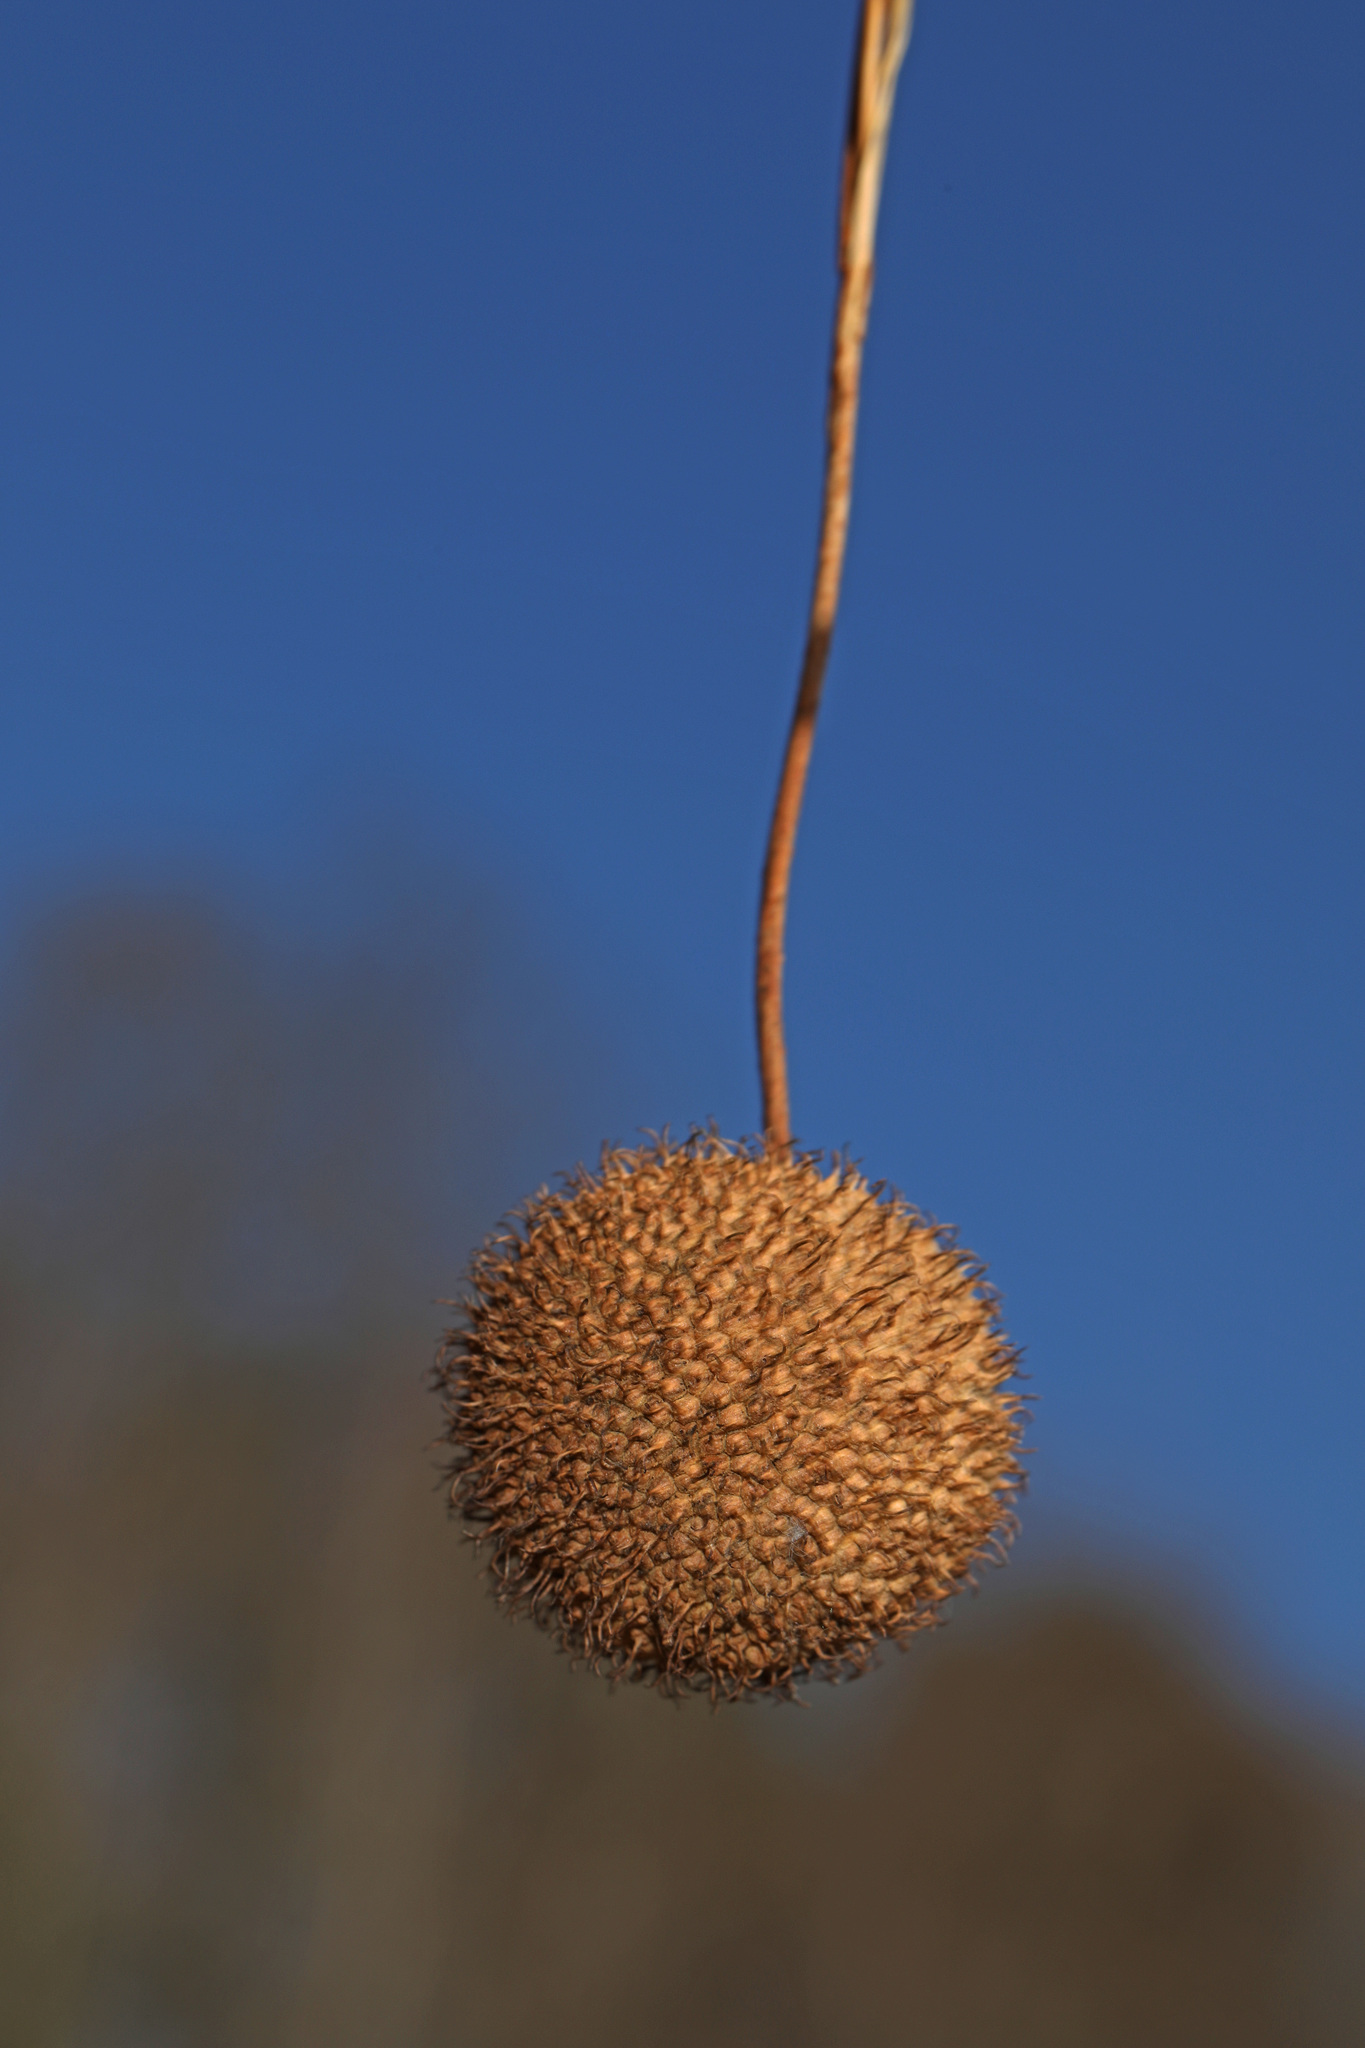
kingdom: Plantae
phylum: Tracheophyta
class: Magnoliopsida
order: Proteales
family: Platanaceae
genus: Platanus
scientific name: Platanus occidentalis
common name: American sycamore
